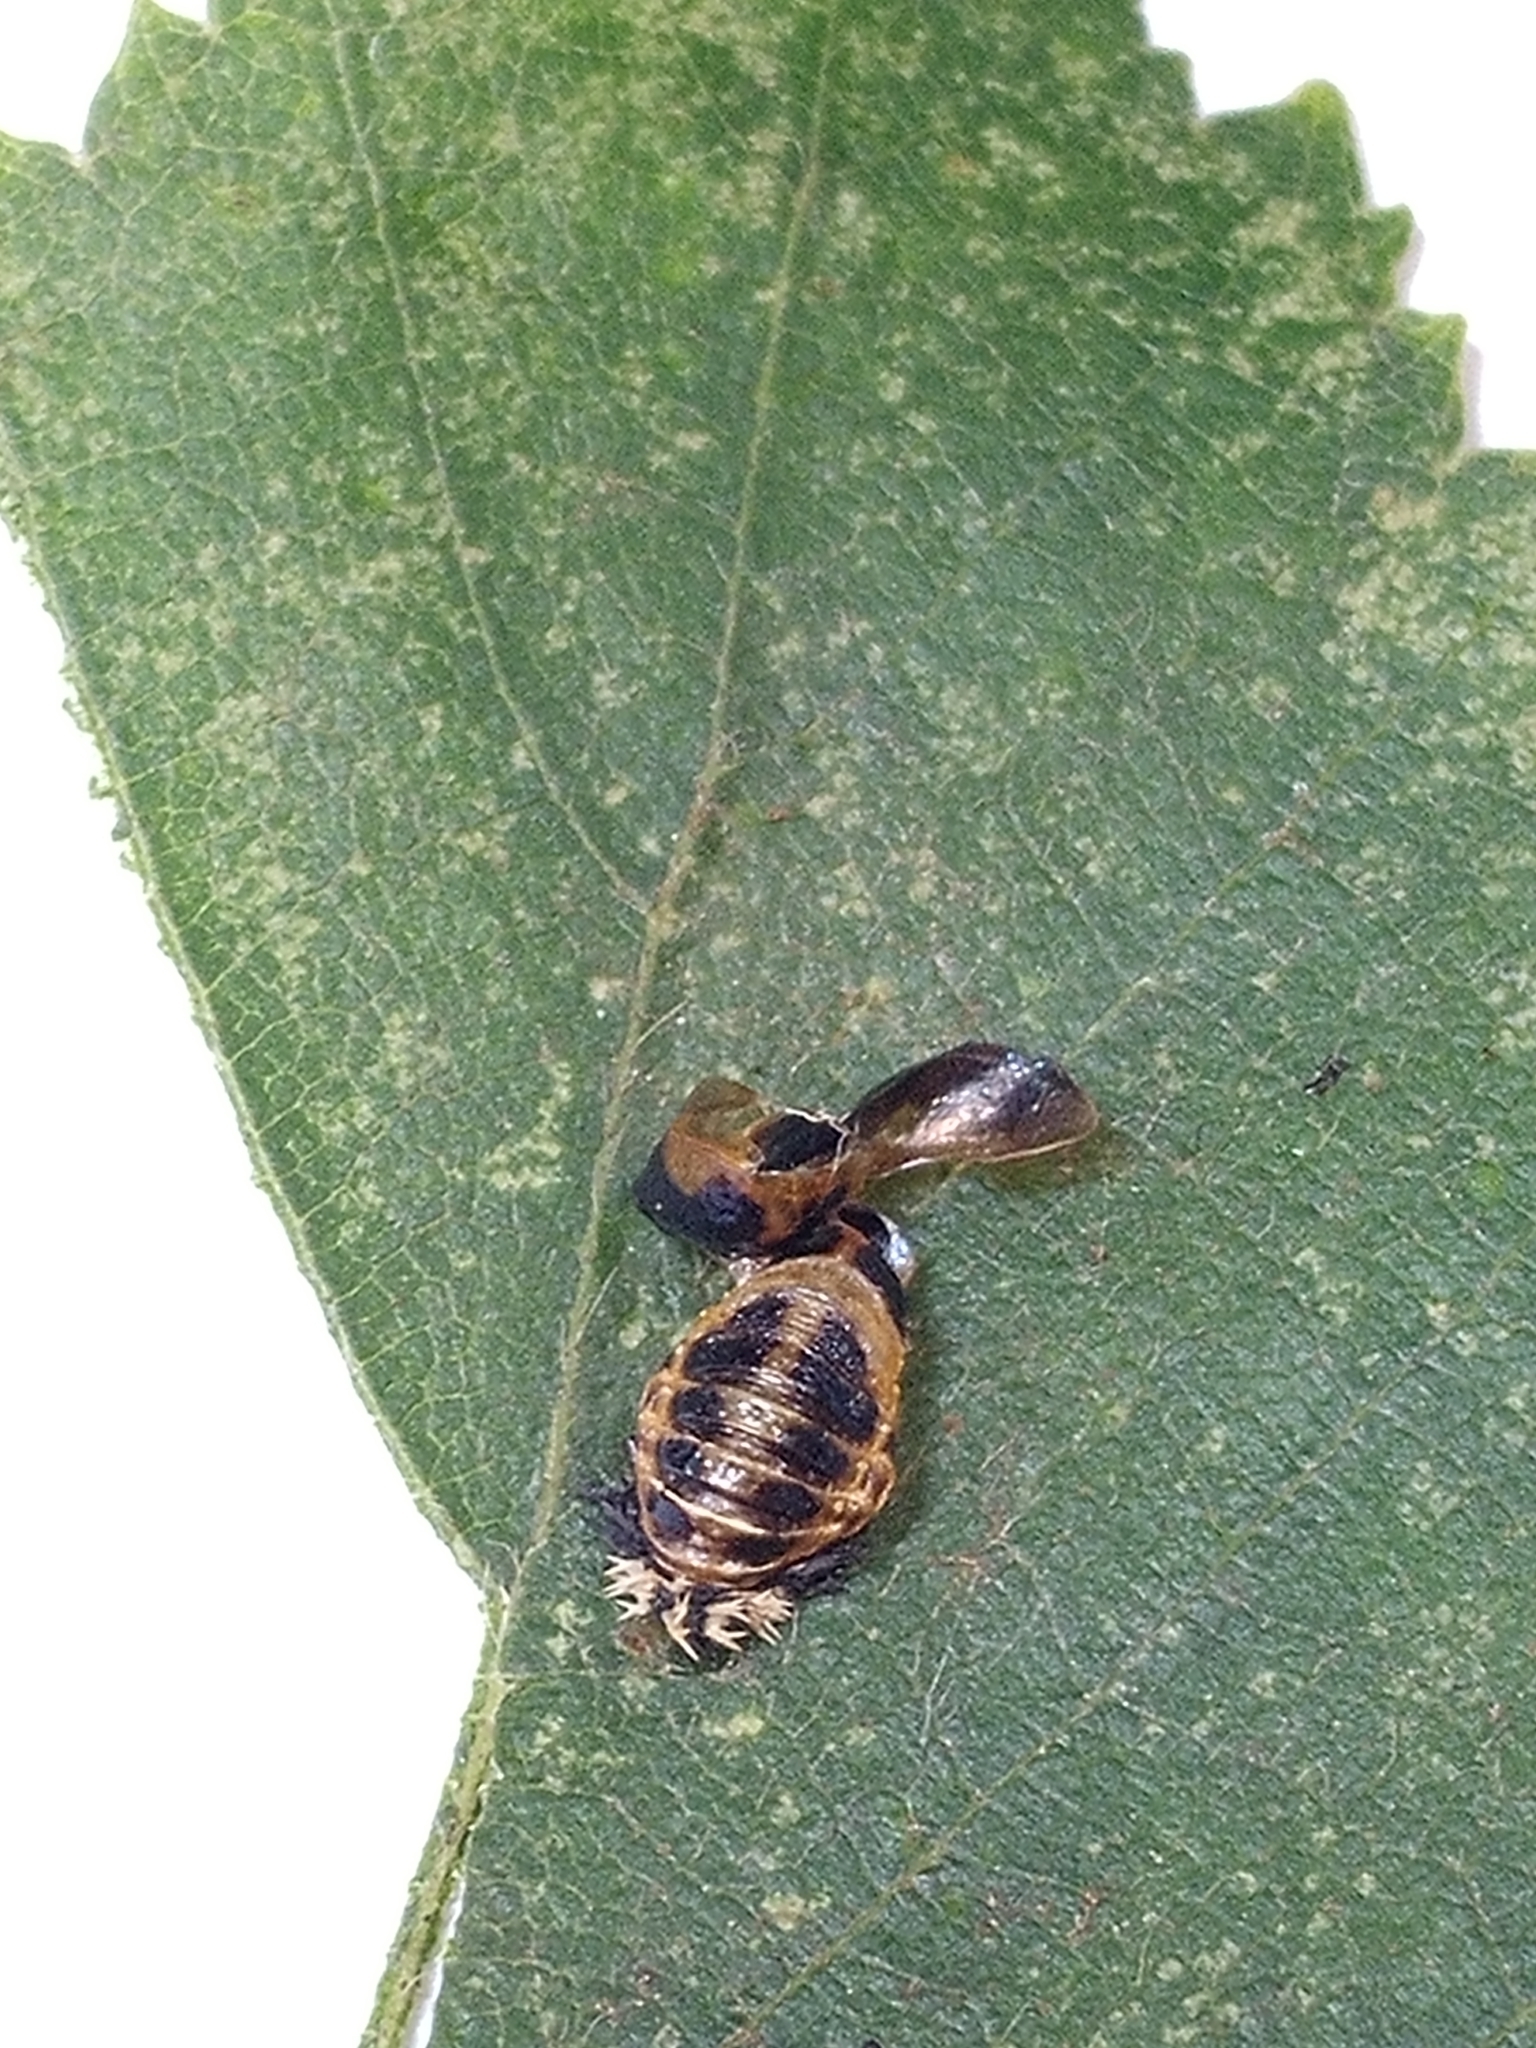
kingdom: Animalia
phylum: Arthropoda
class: Insecta
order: Coleoptera
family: Coccinellidae
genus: Harmonia
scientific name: Harmonia axyridis
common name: Harlequin ladybird
